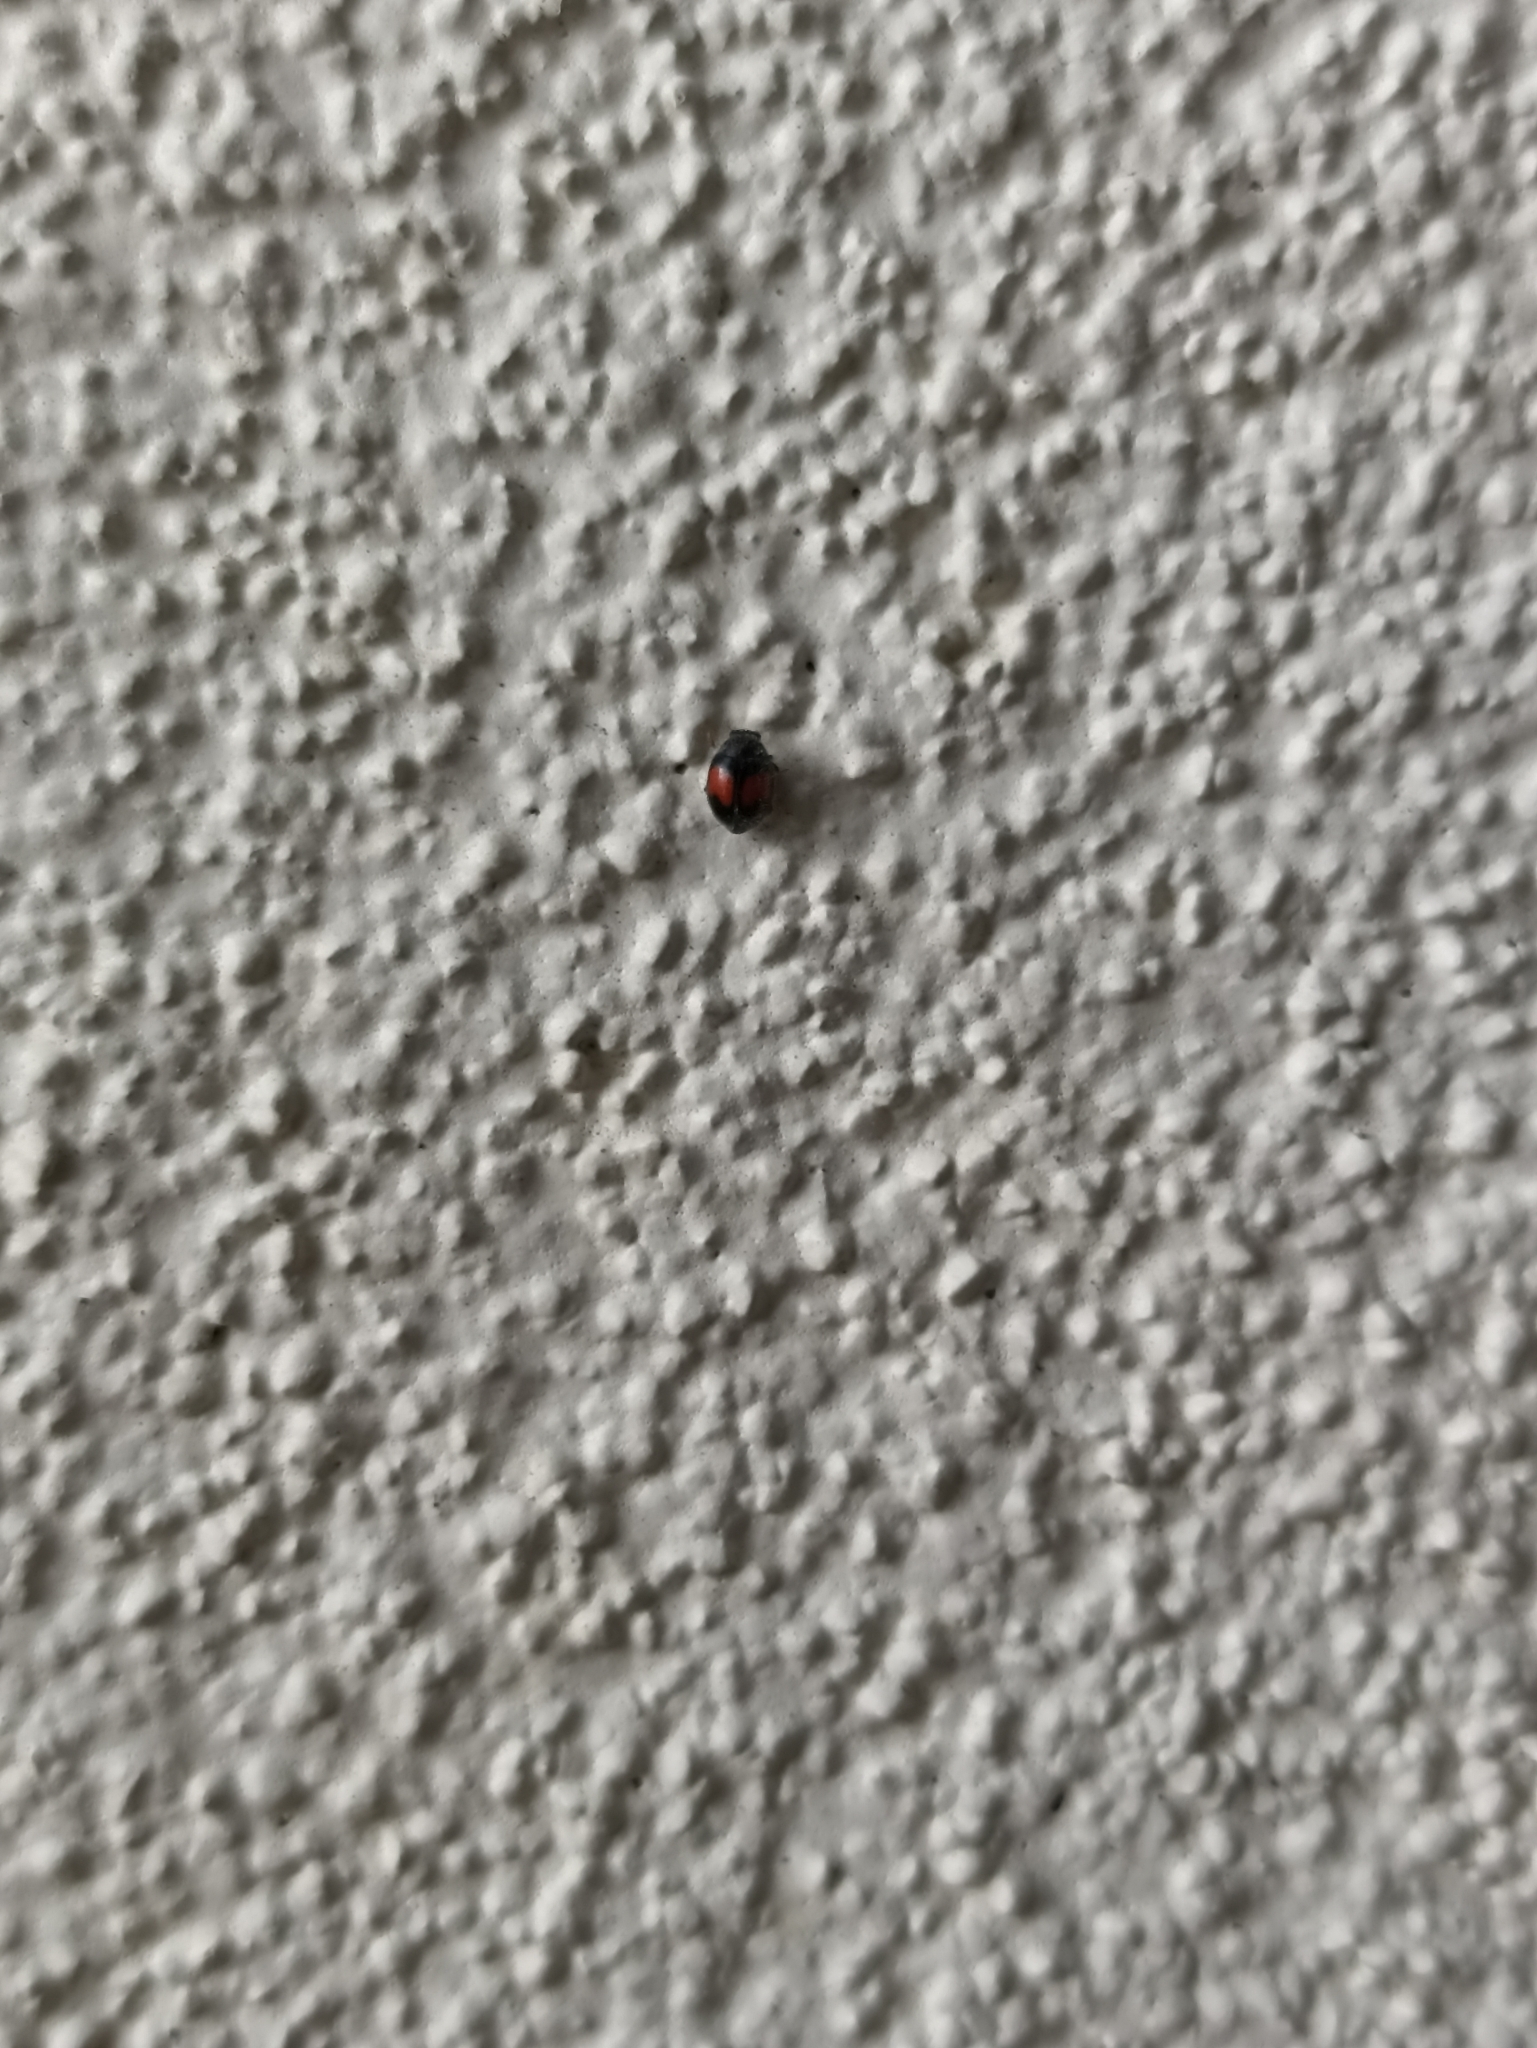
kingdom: Animalia
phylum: Arthropoda
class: Insecta
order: Coleoptera
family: Coccinellidae
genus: Scymnus
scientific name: Scymnus notescens
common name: Minute two-spotted ladybird beetle
